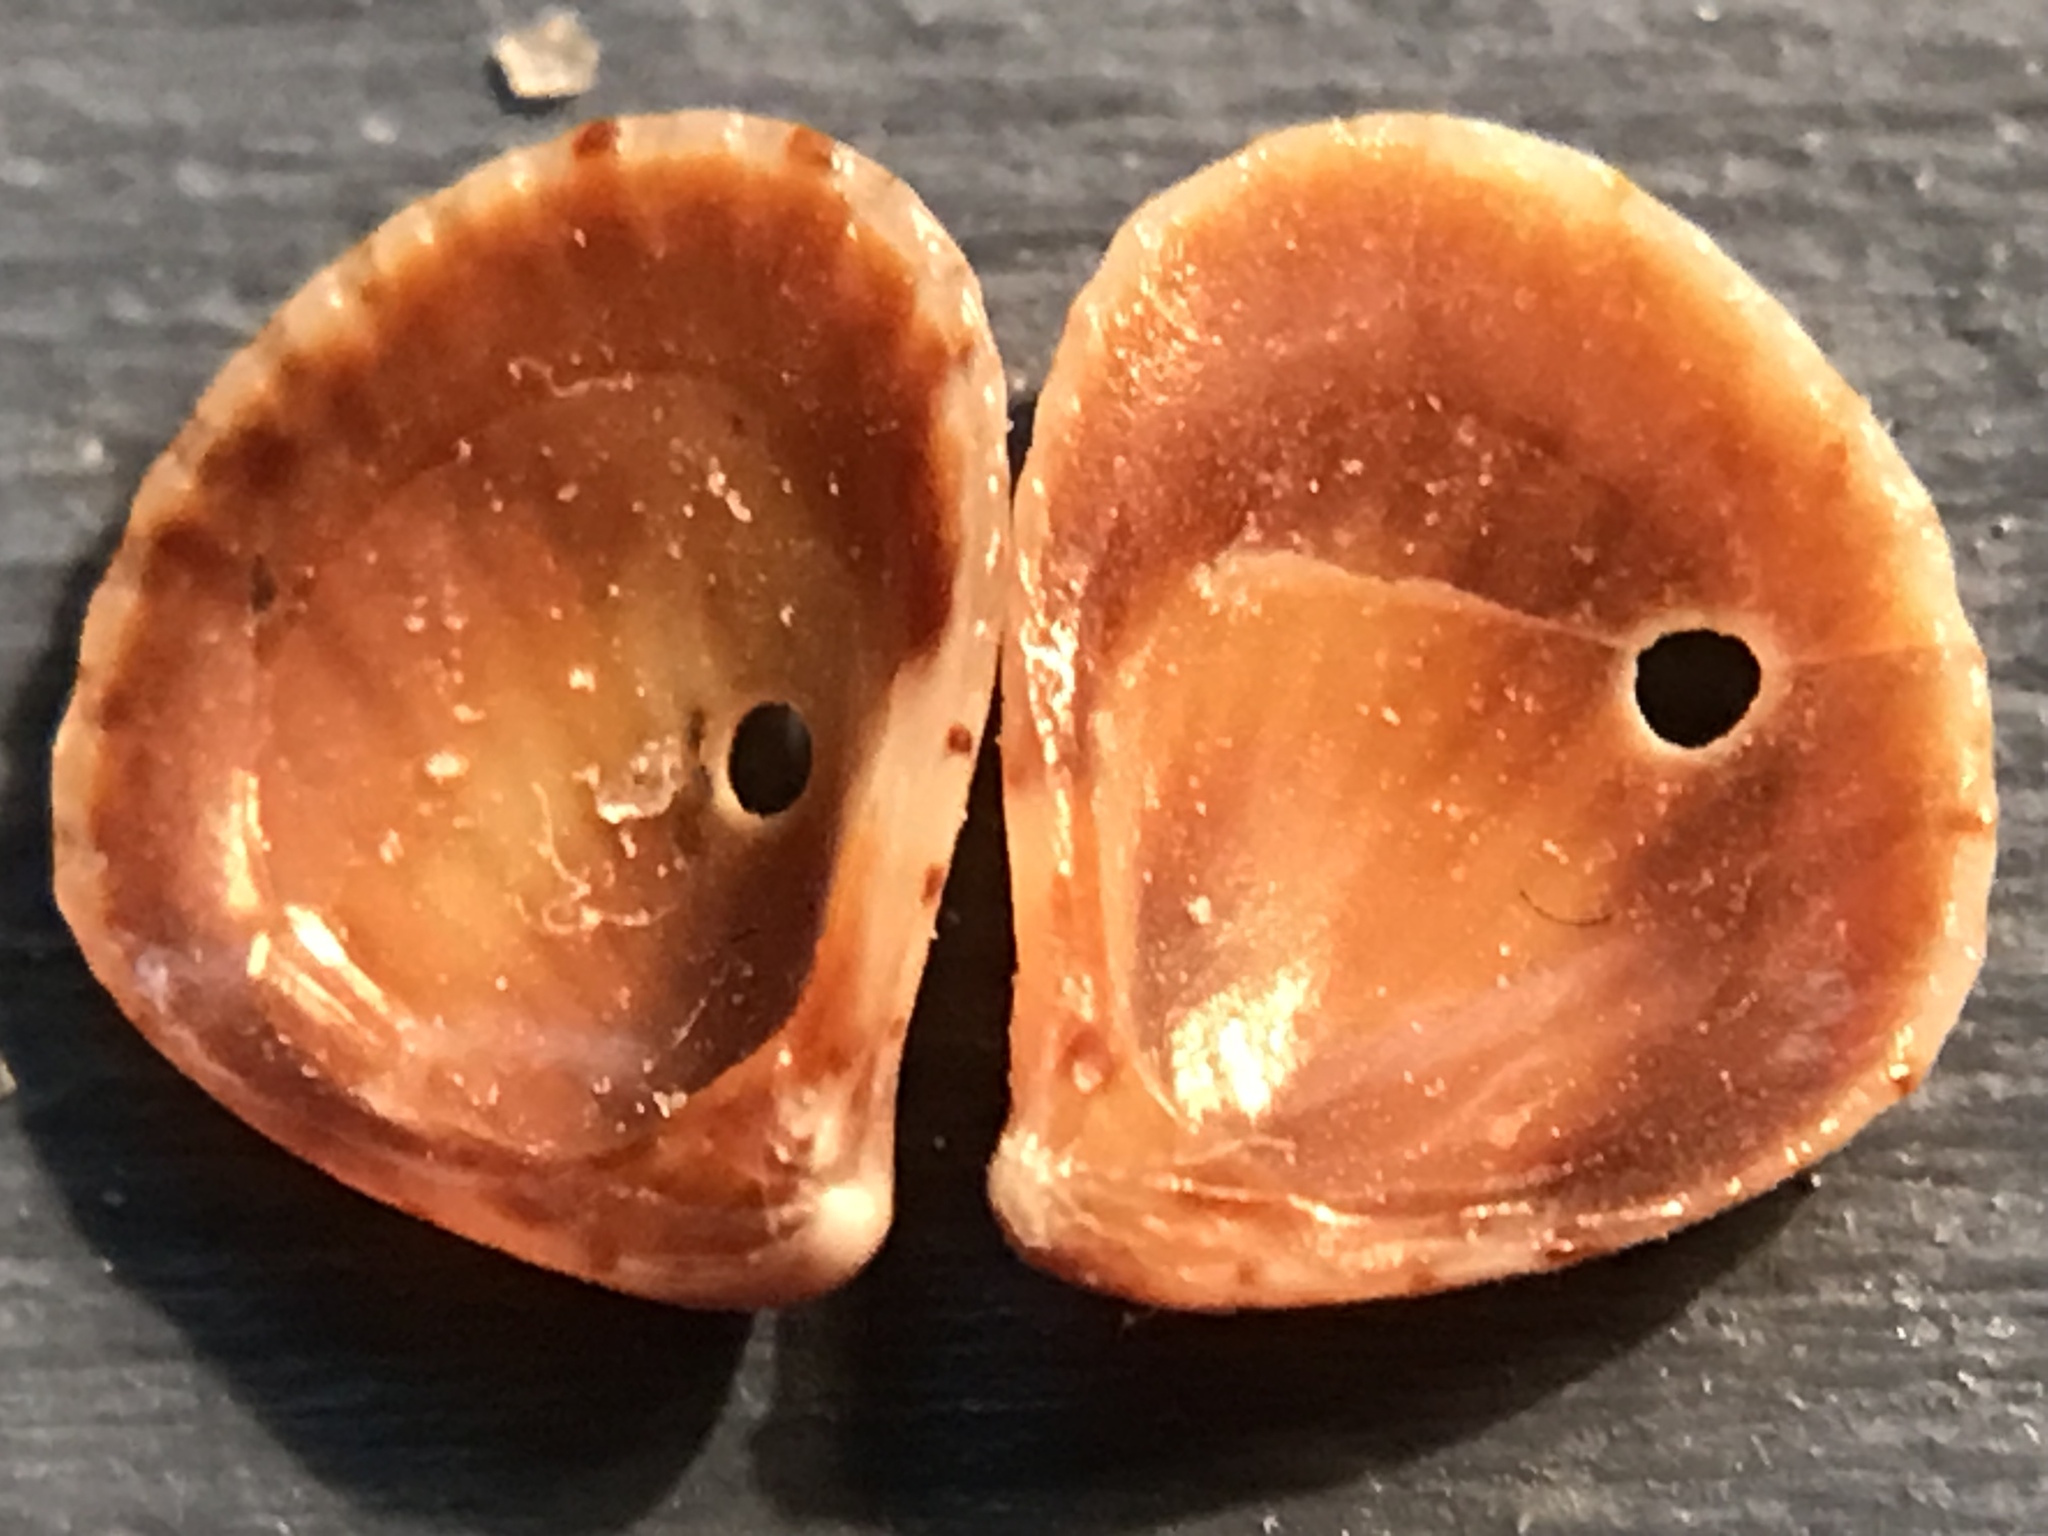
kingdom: Animalia
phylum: Mollusca
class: Bivalvia
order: Carditida
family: Carditidae
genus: Pteromeris
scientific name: Pteromeris perplana
